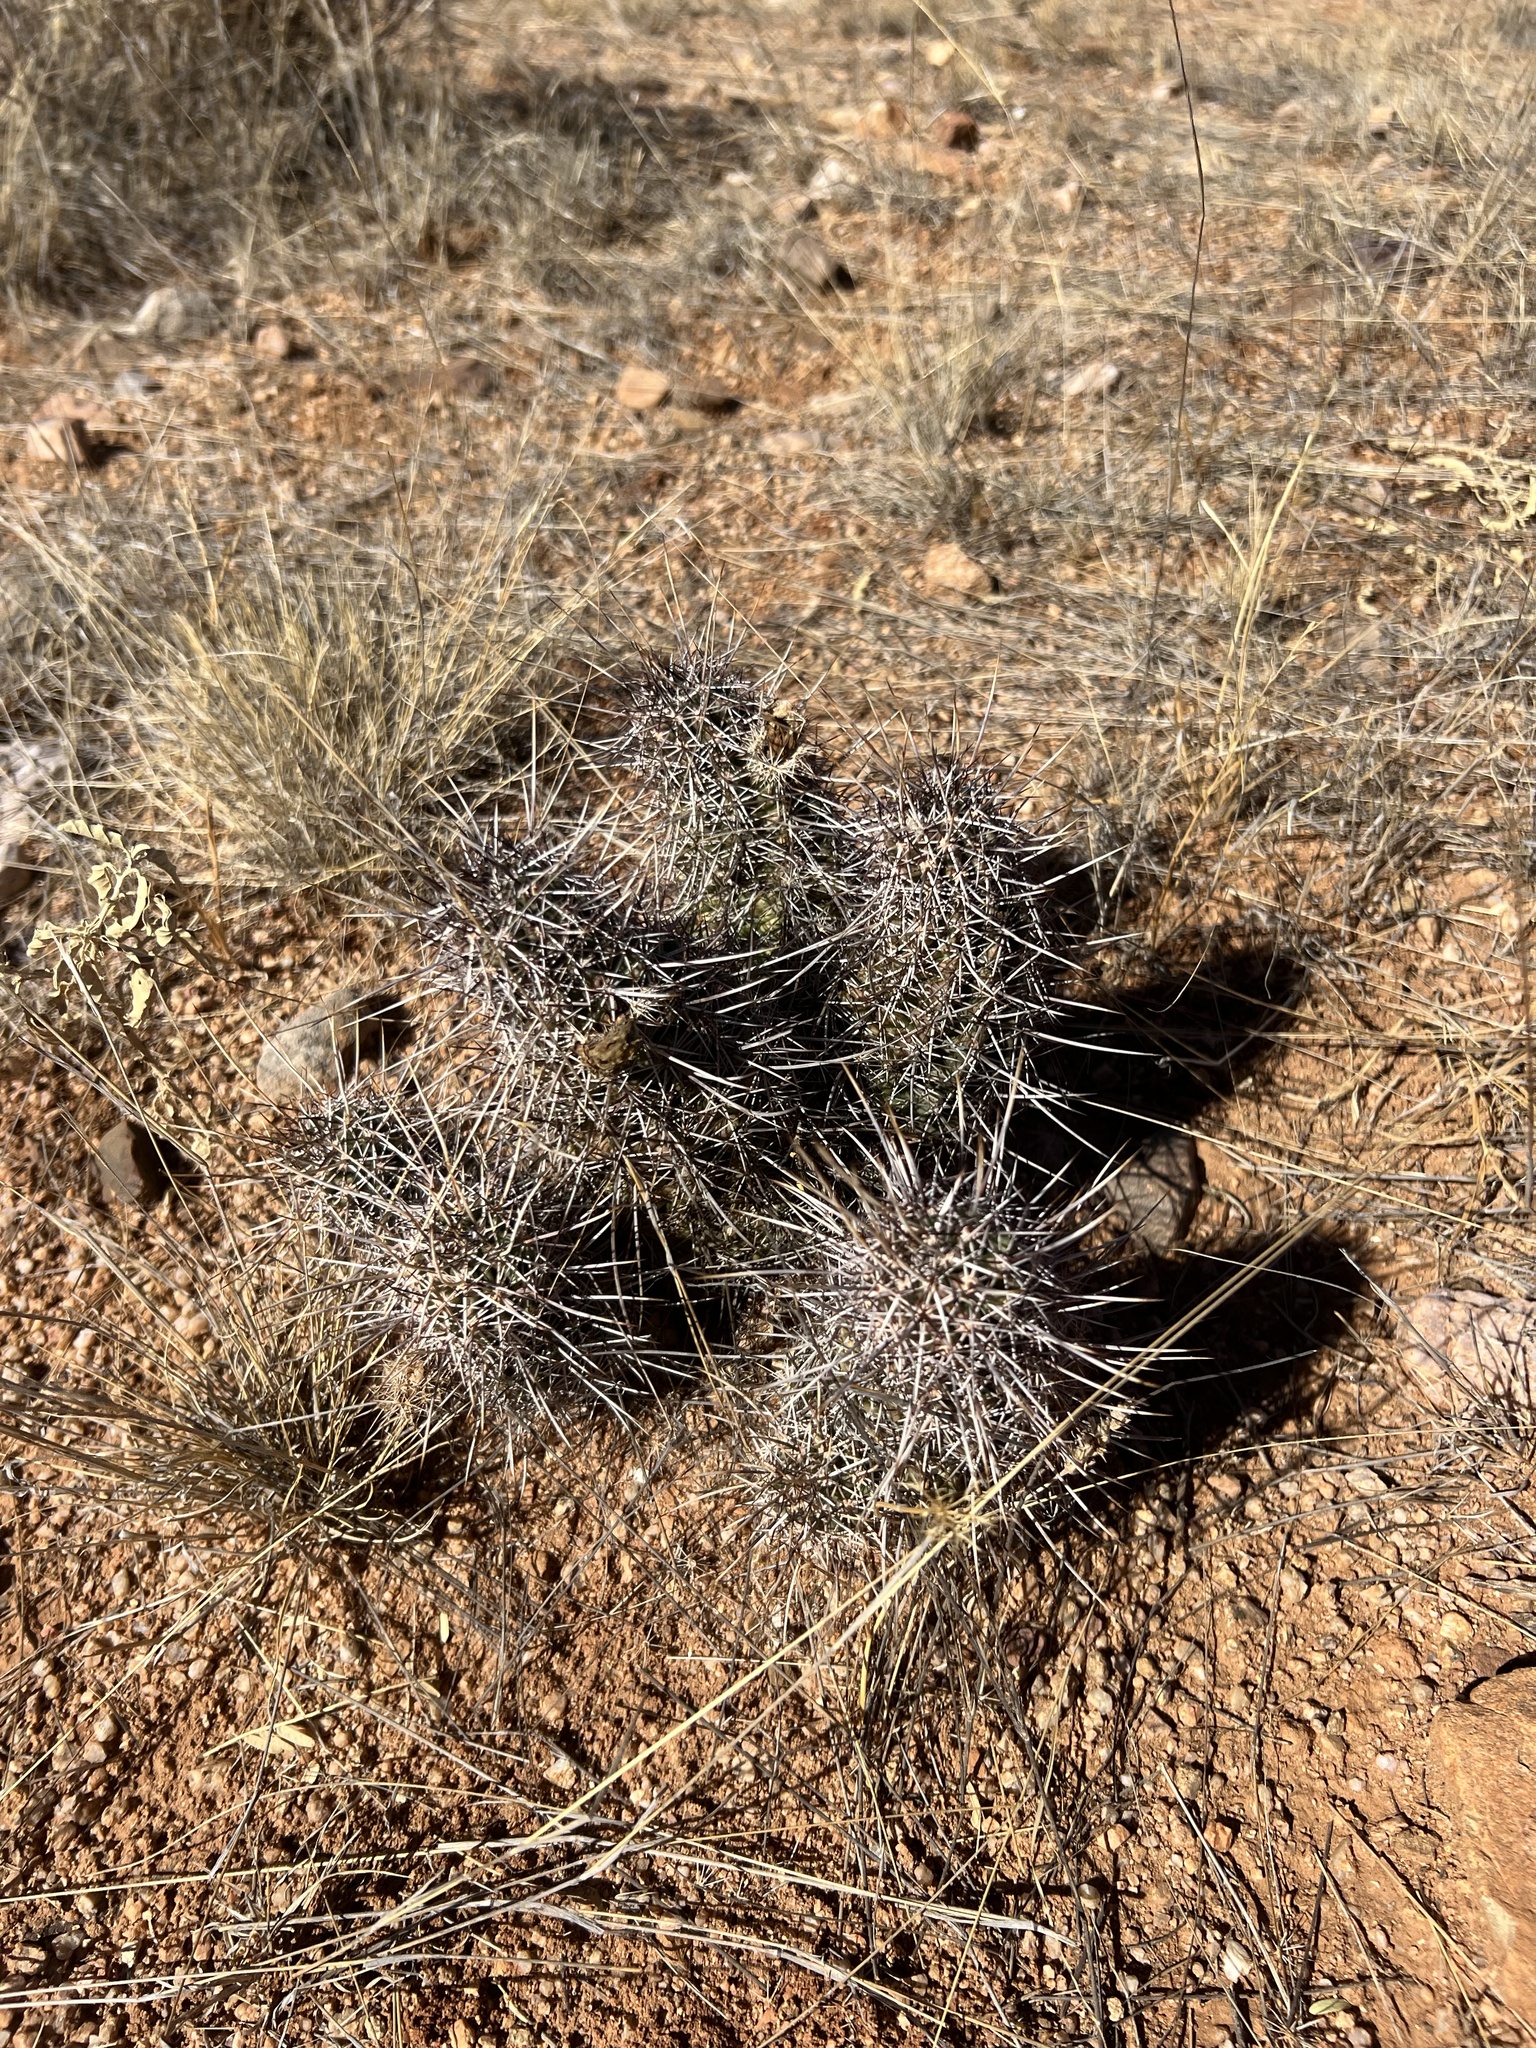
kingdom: Plantae
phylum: Tracheophyta
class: Magnoliopsida
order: Caryophyllales
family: Cactaceae
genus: Echinocereus
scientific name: Echinocereus fasciculatus
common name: Bundle hedgehog
